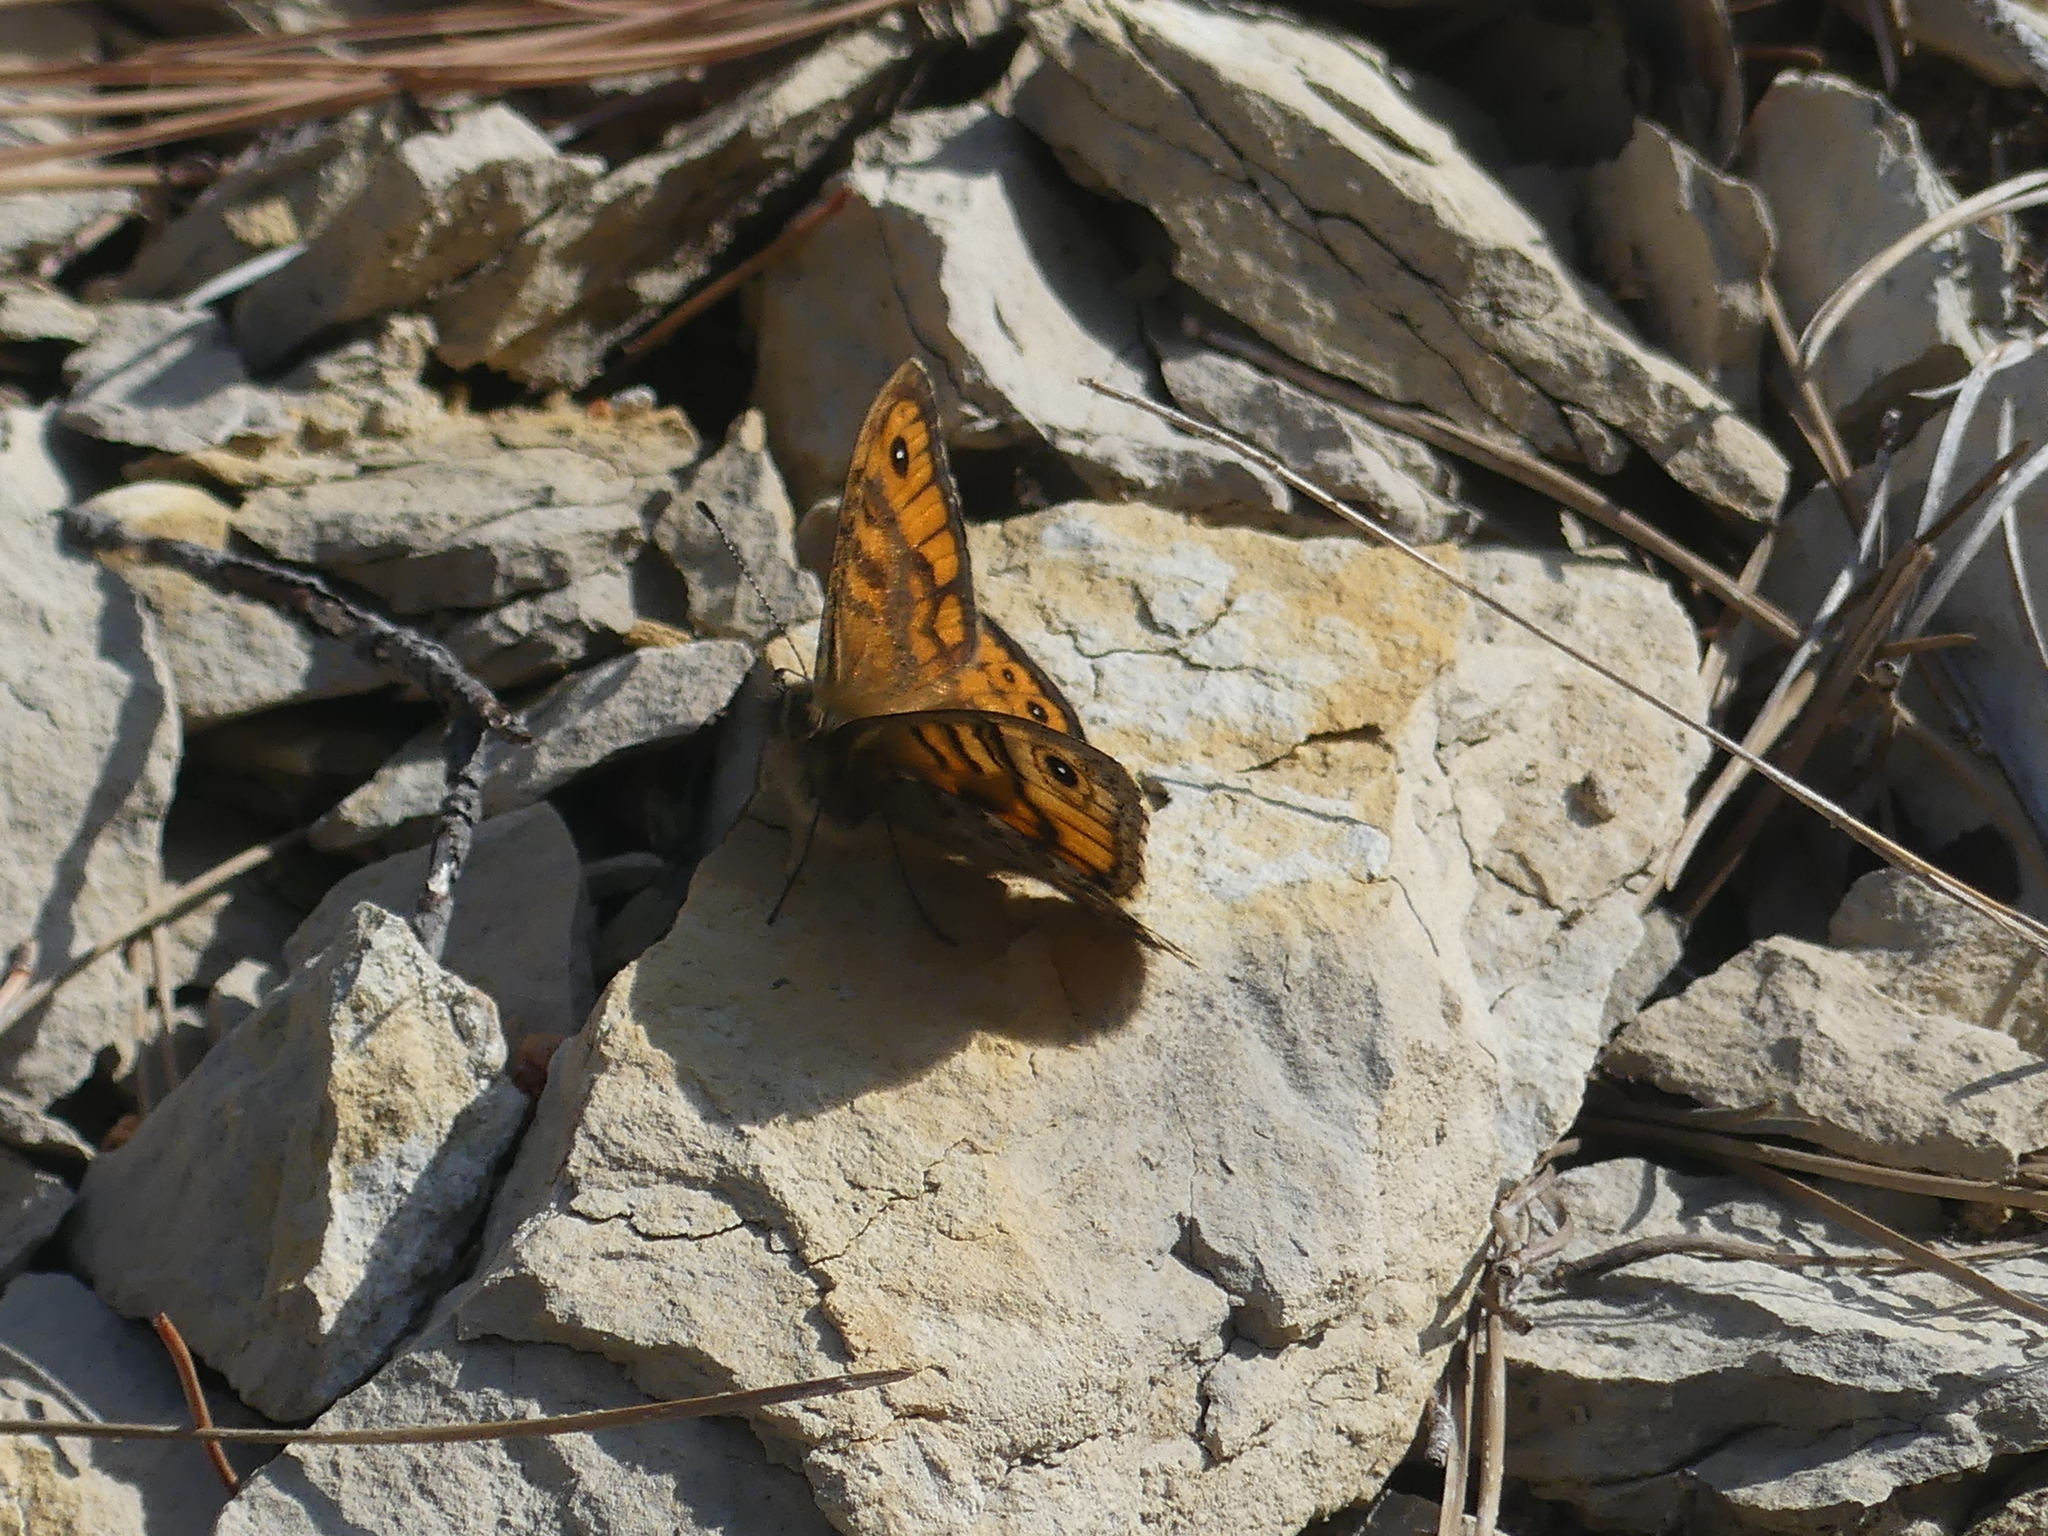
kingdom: Animalia
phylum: Arthropoda
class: Insecta
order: Lepidoptera
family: Nymphalidae
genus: Pararge
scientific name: Pararge Lasiommata megera
